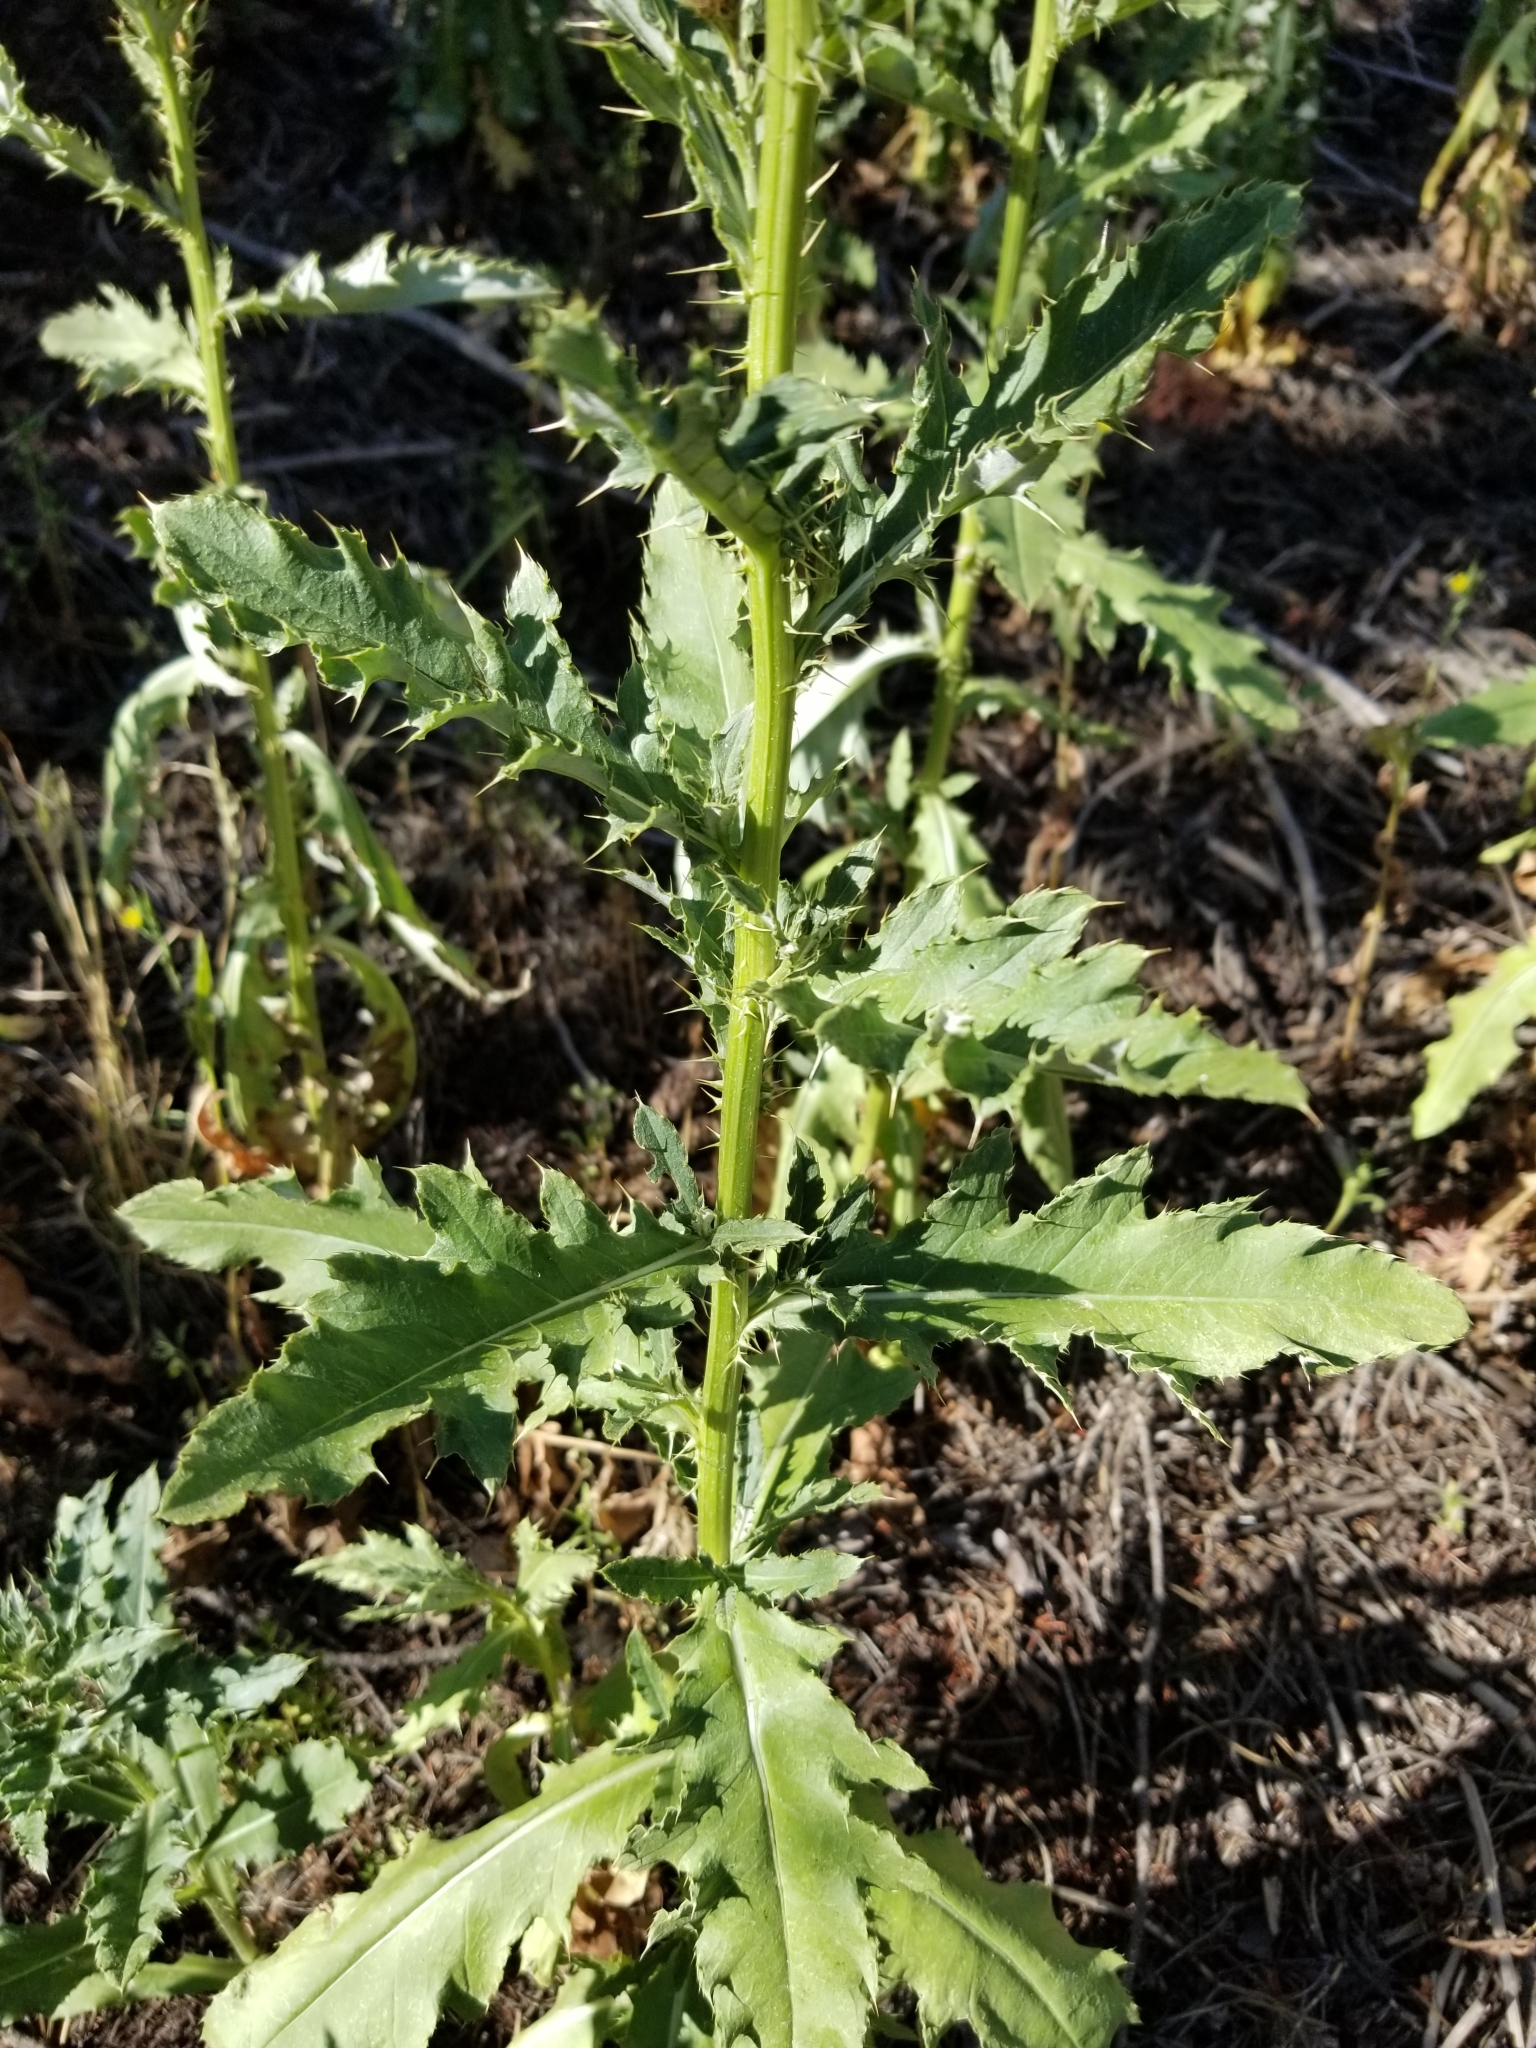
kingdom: Plantae
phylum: Tracheophyta
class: Magnoliopsida
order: Asterales
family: Asteraceae
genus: Cirsium
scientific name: Cirsium arvense
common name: Creeping thistle
